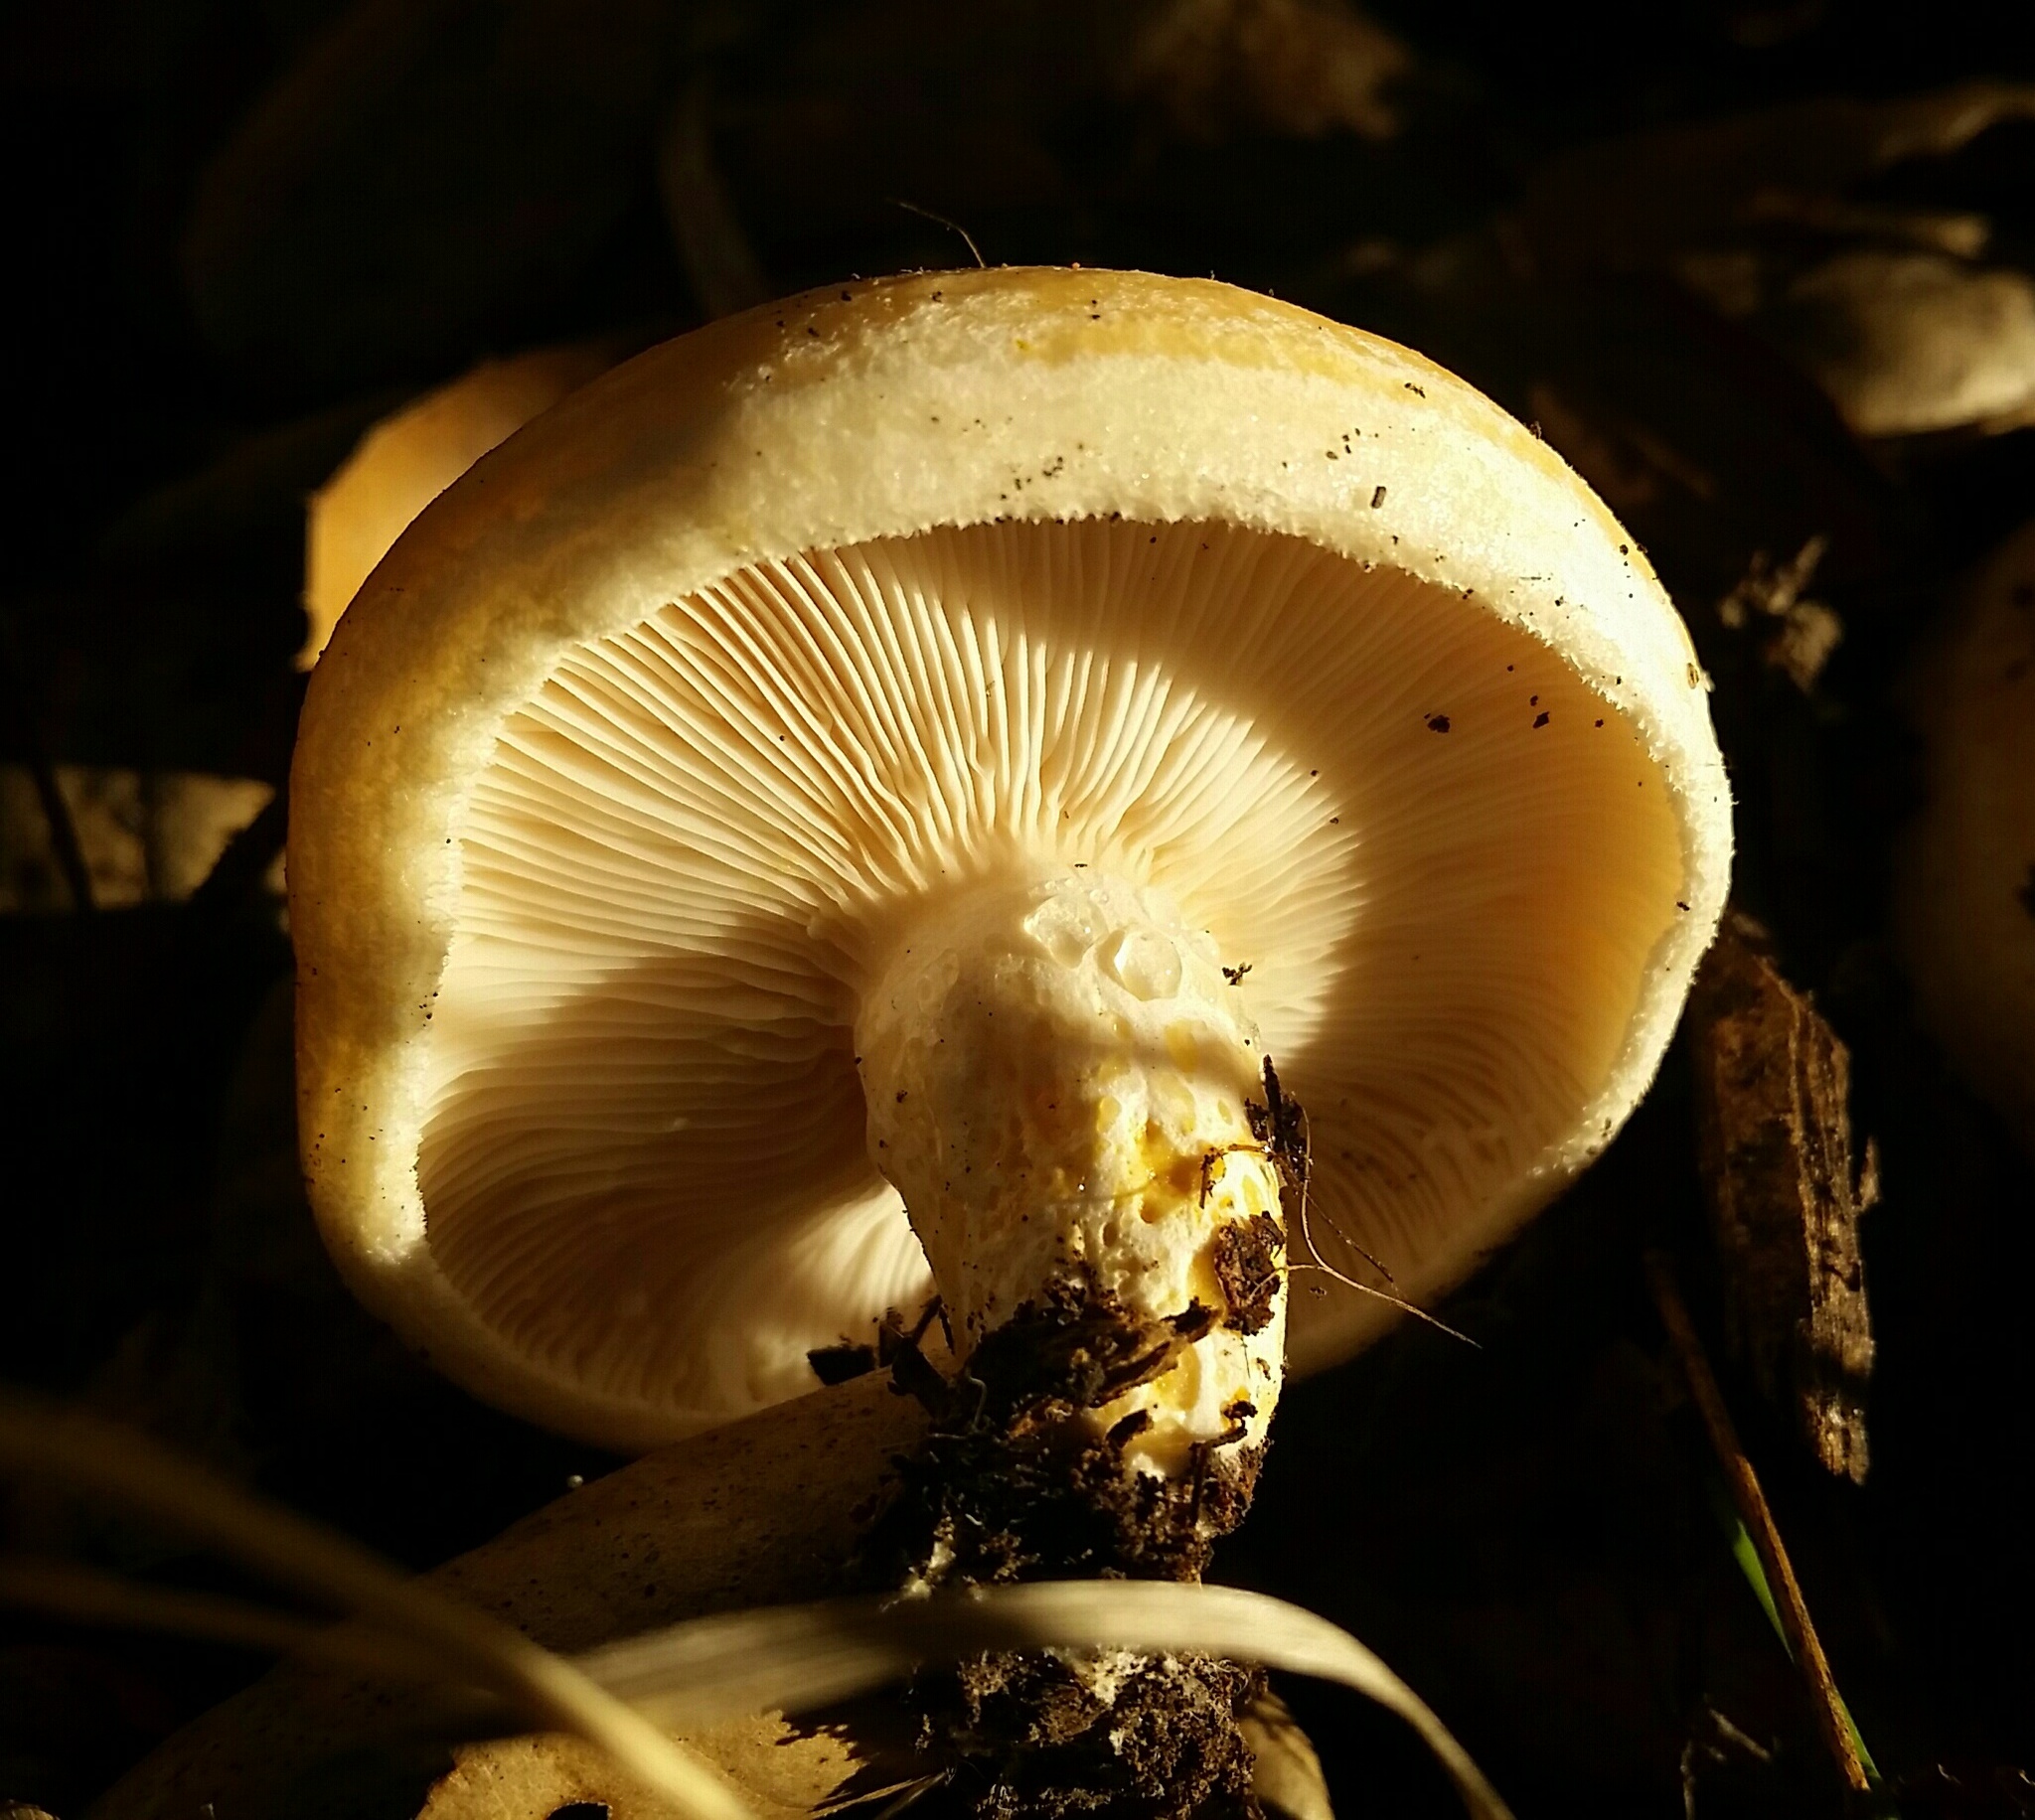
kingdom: Fungi
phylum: Basidiomycota
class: Agaricomycetes
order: Russulales
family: Russulaceae
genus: Lactarius
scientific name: Lactarius alnicola
